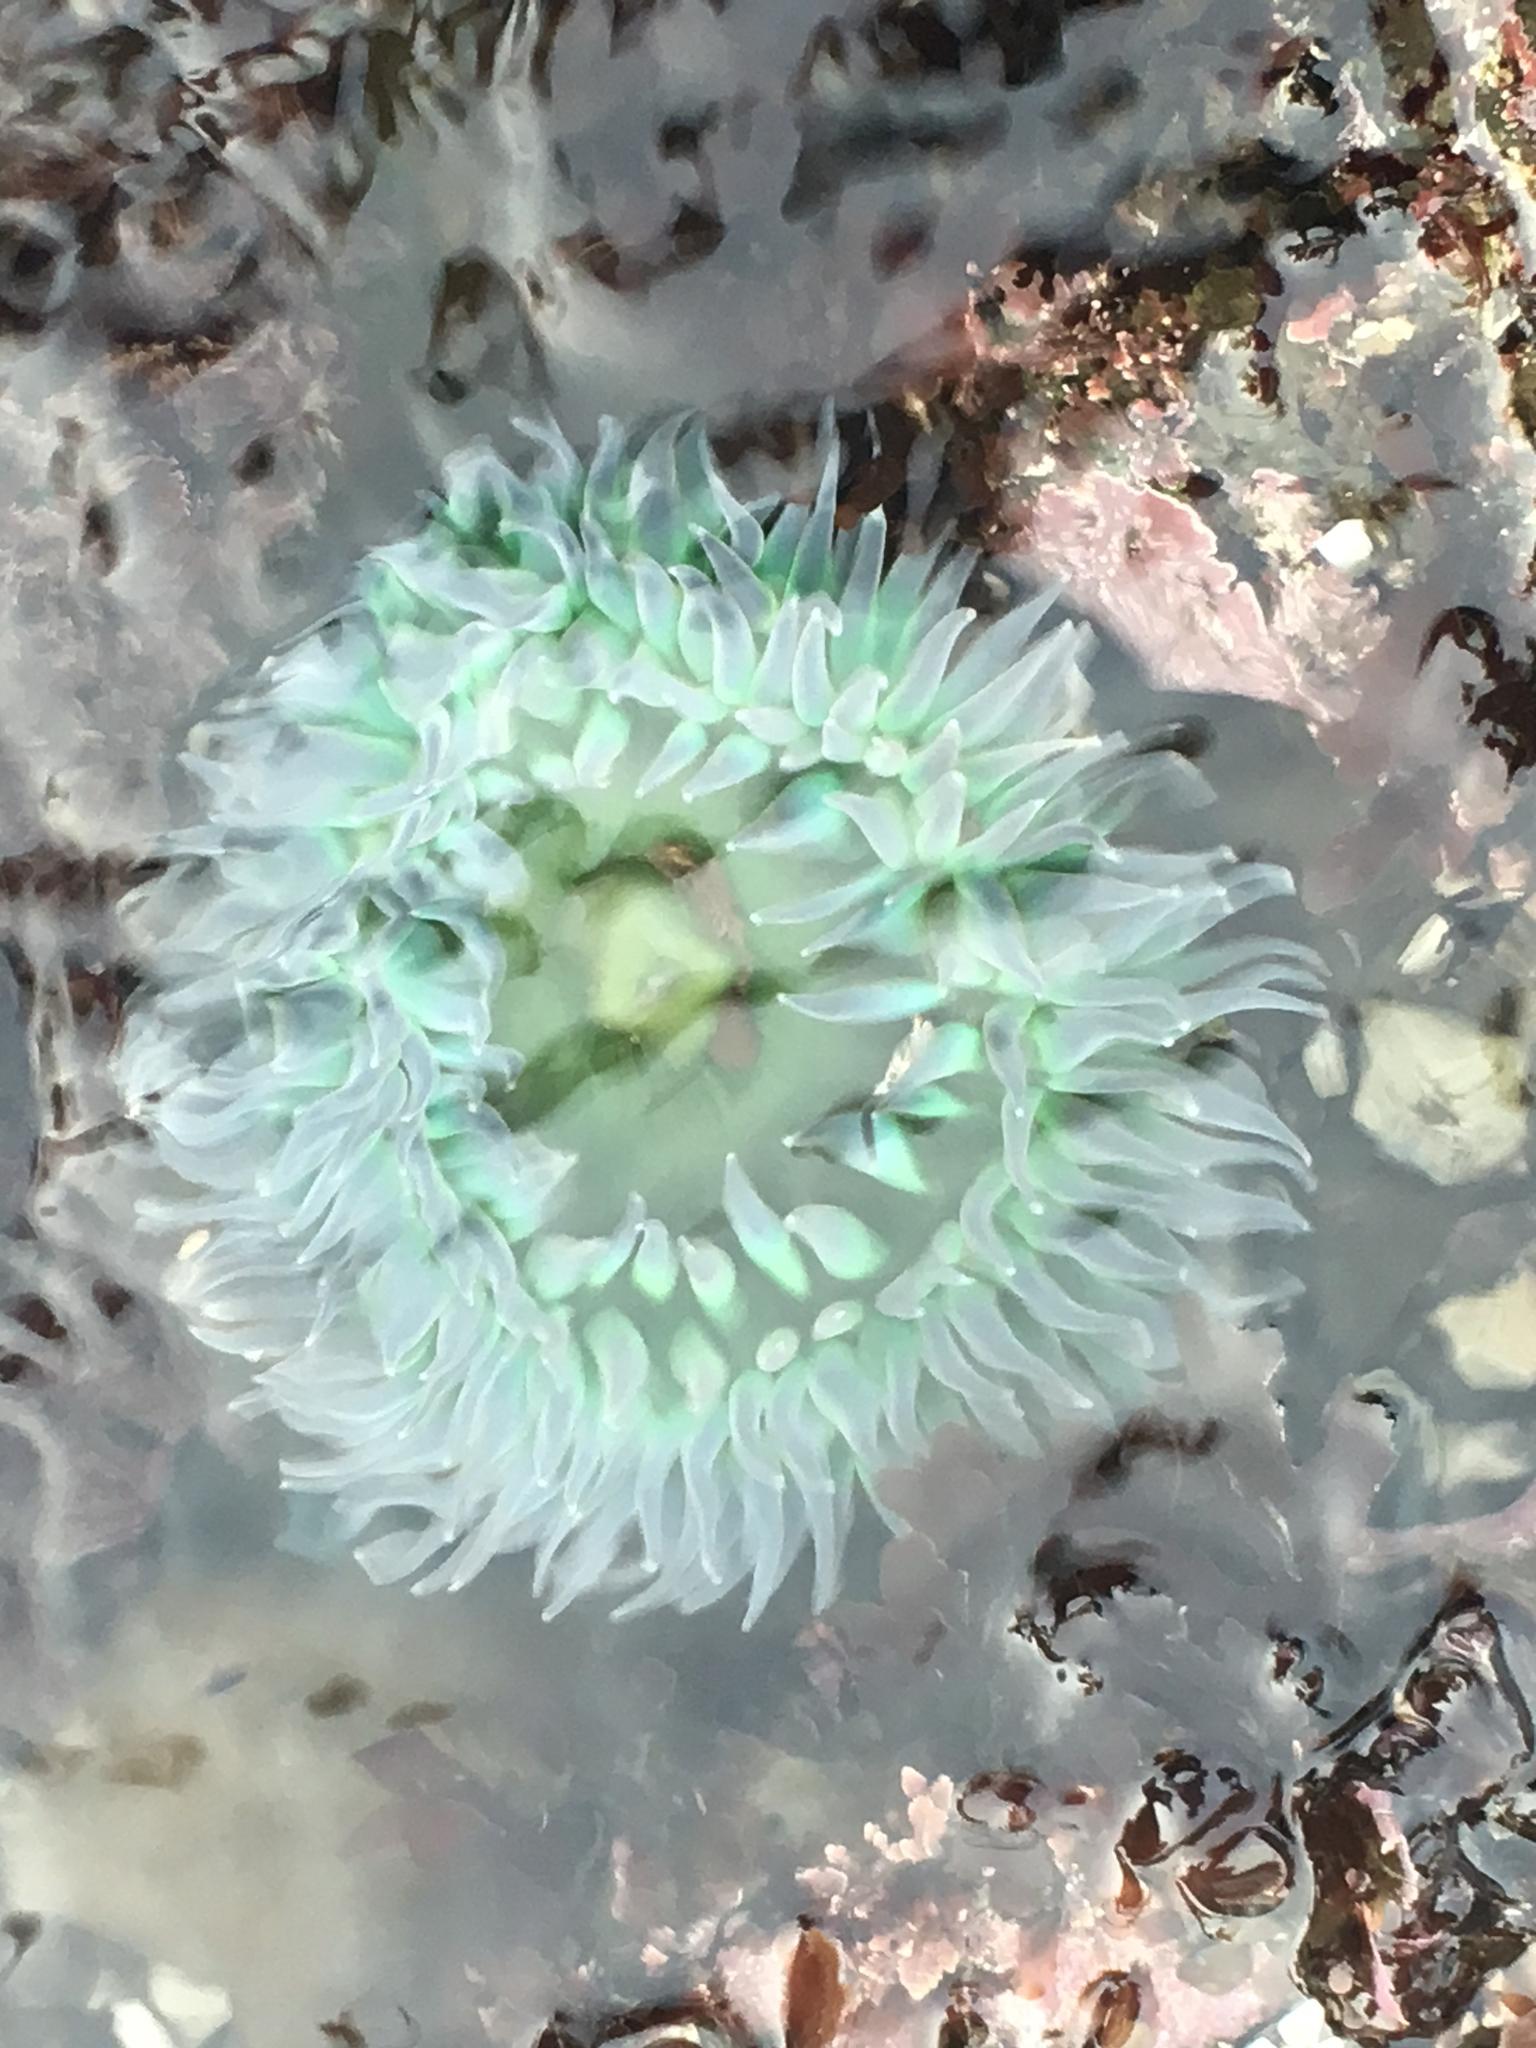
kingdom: Animalia
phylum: Cnidaria
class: Anthozoa
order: Actiniaria
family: Actiniidae
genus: Anthopleura
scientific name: Anthopleura xanthogrammica
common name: Giant green anemone
